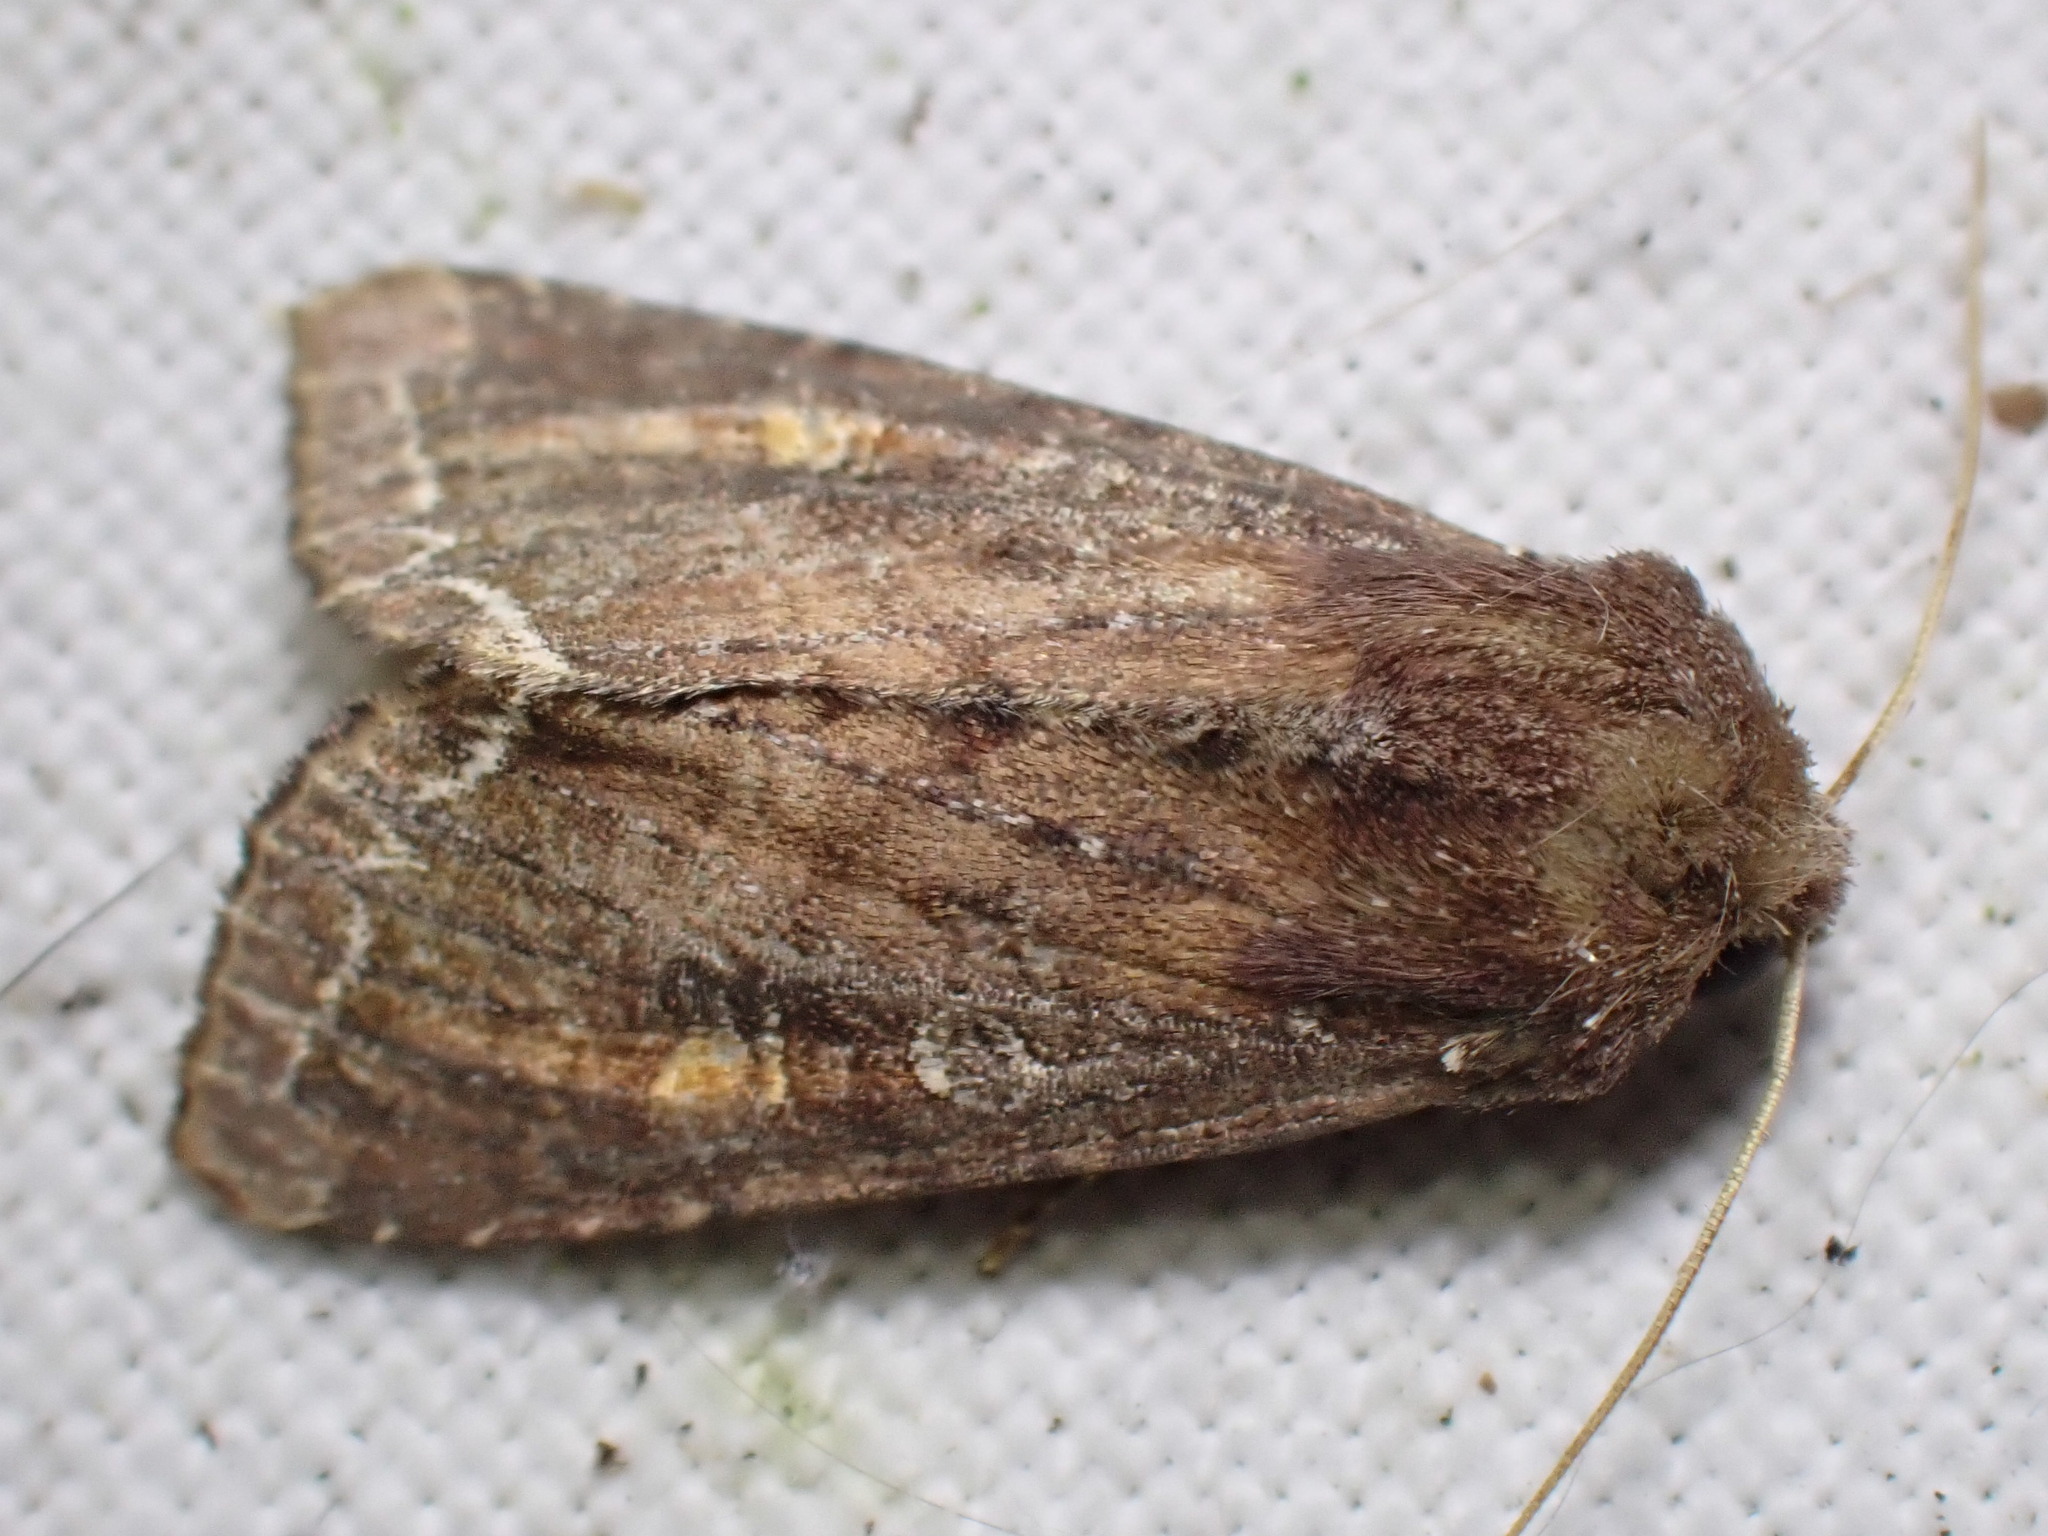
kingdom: Animalia
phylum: Arthropoda
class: Insecta
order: Lepidoptera
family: Noctuidae
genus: Lacanobia
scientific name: Lacanobia oleracea
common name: Bright-line brown-eye
